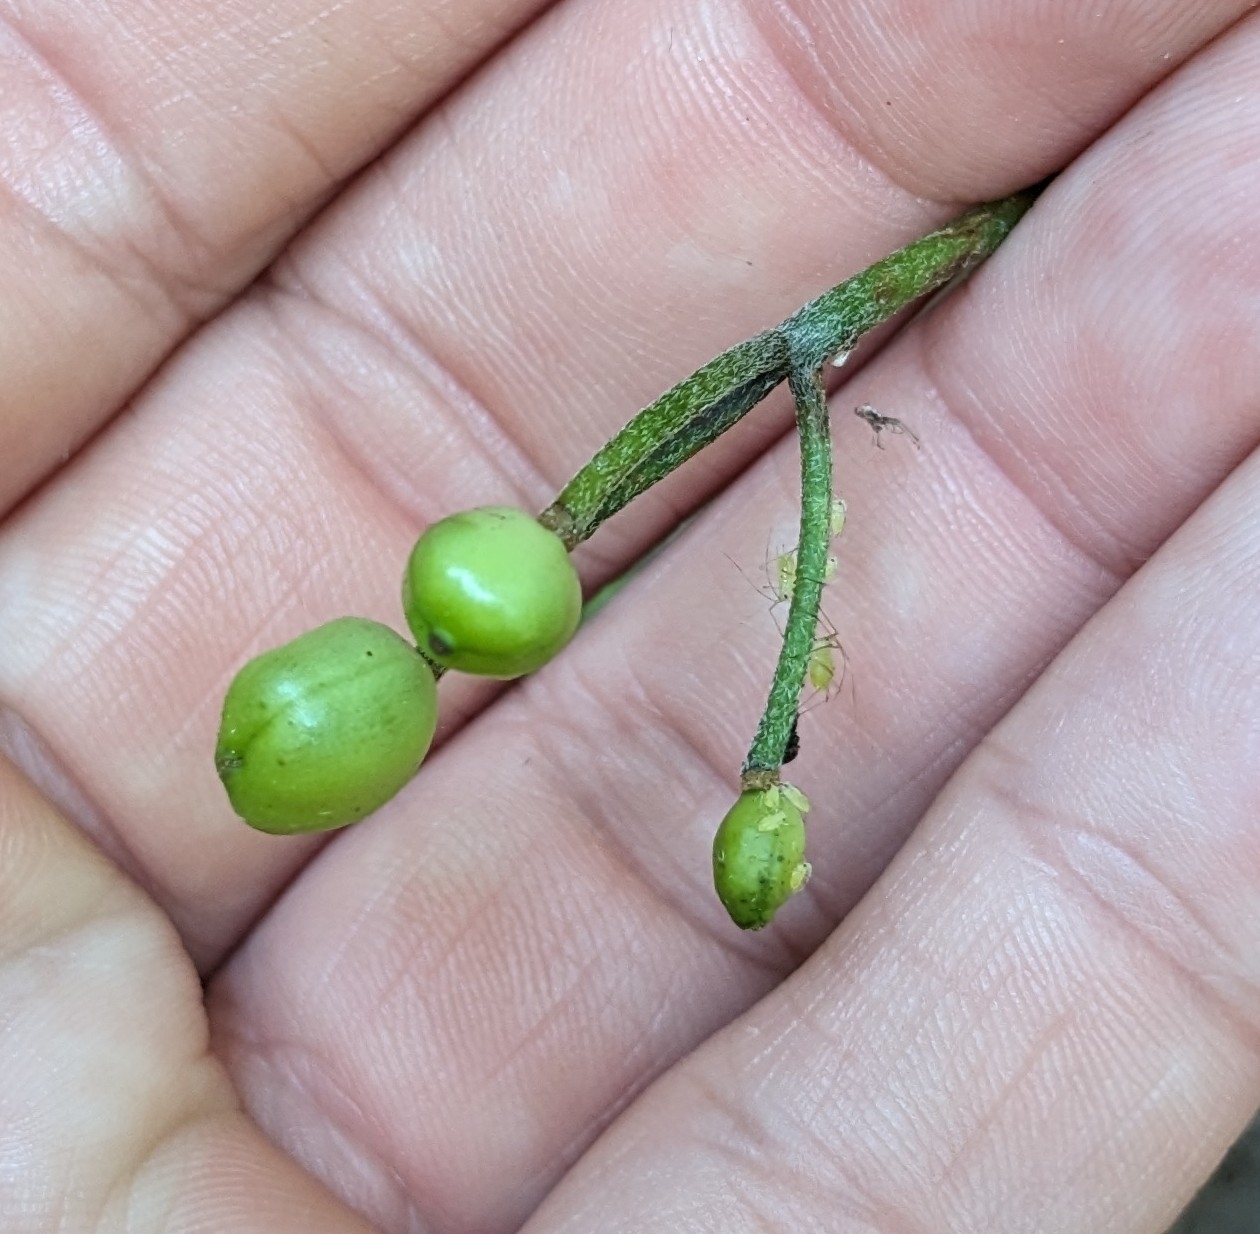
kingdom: Plantae
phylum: Tracheophyta
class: Liliopsida
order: Liliales
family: Liliaceae
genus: Clintonia
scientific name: Clintonia borealis
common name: Yellow clintonia
